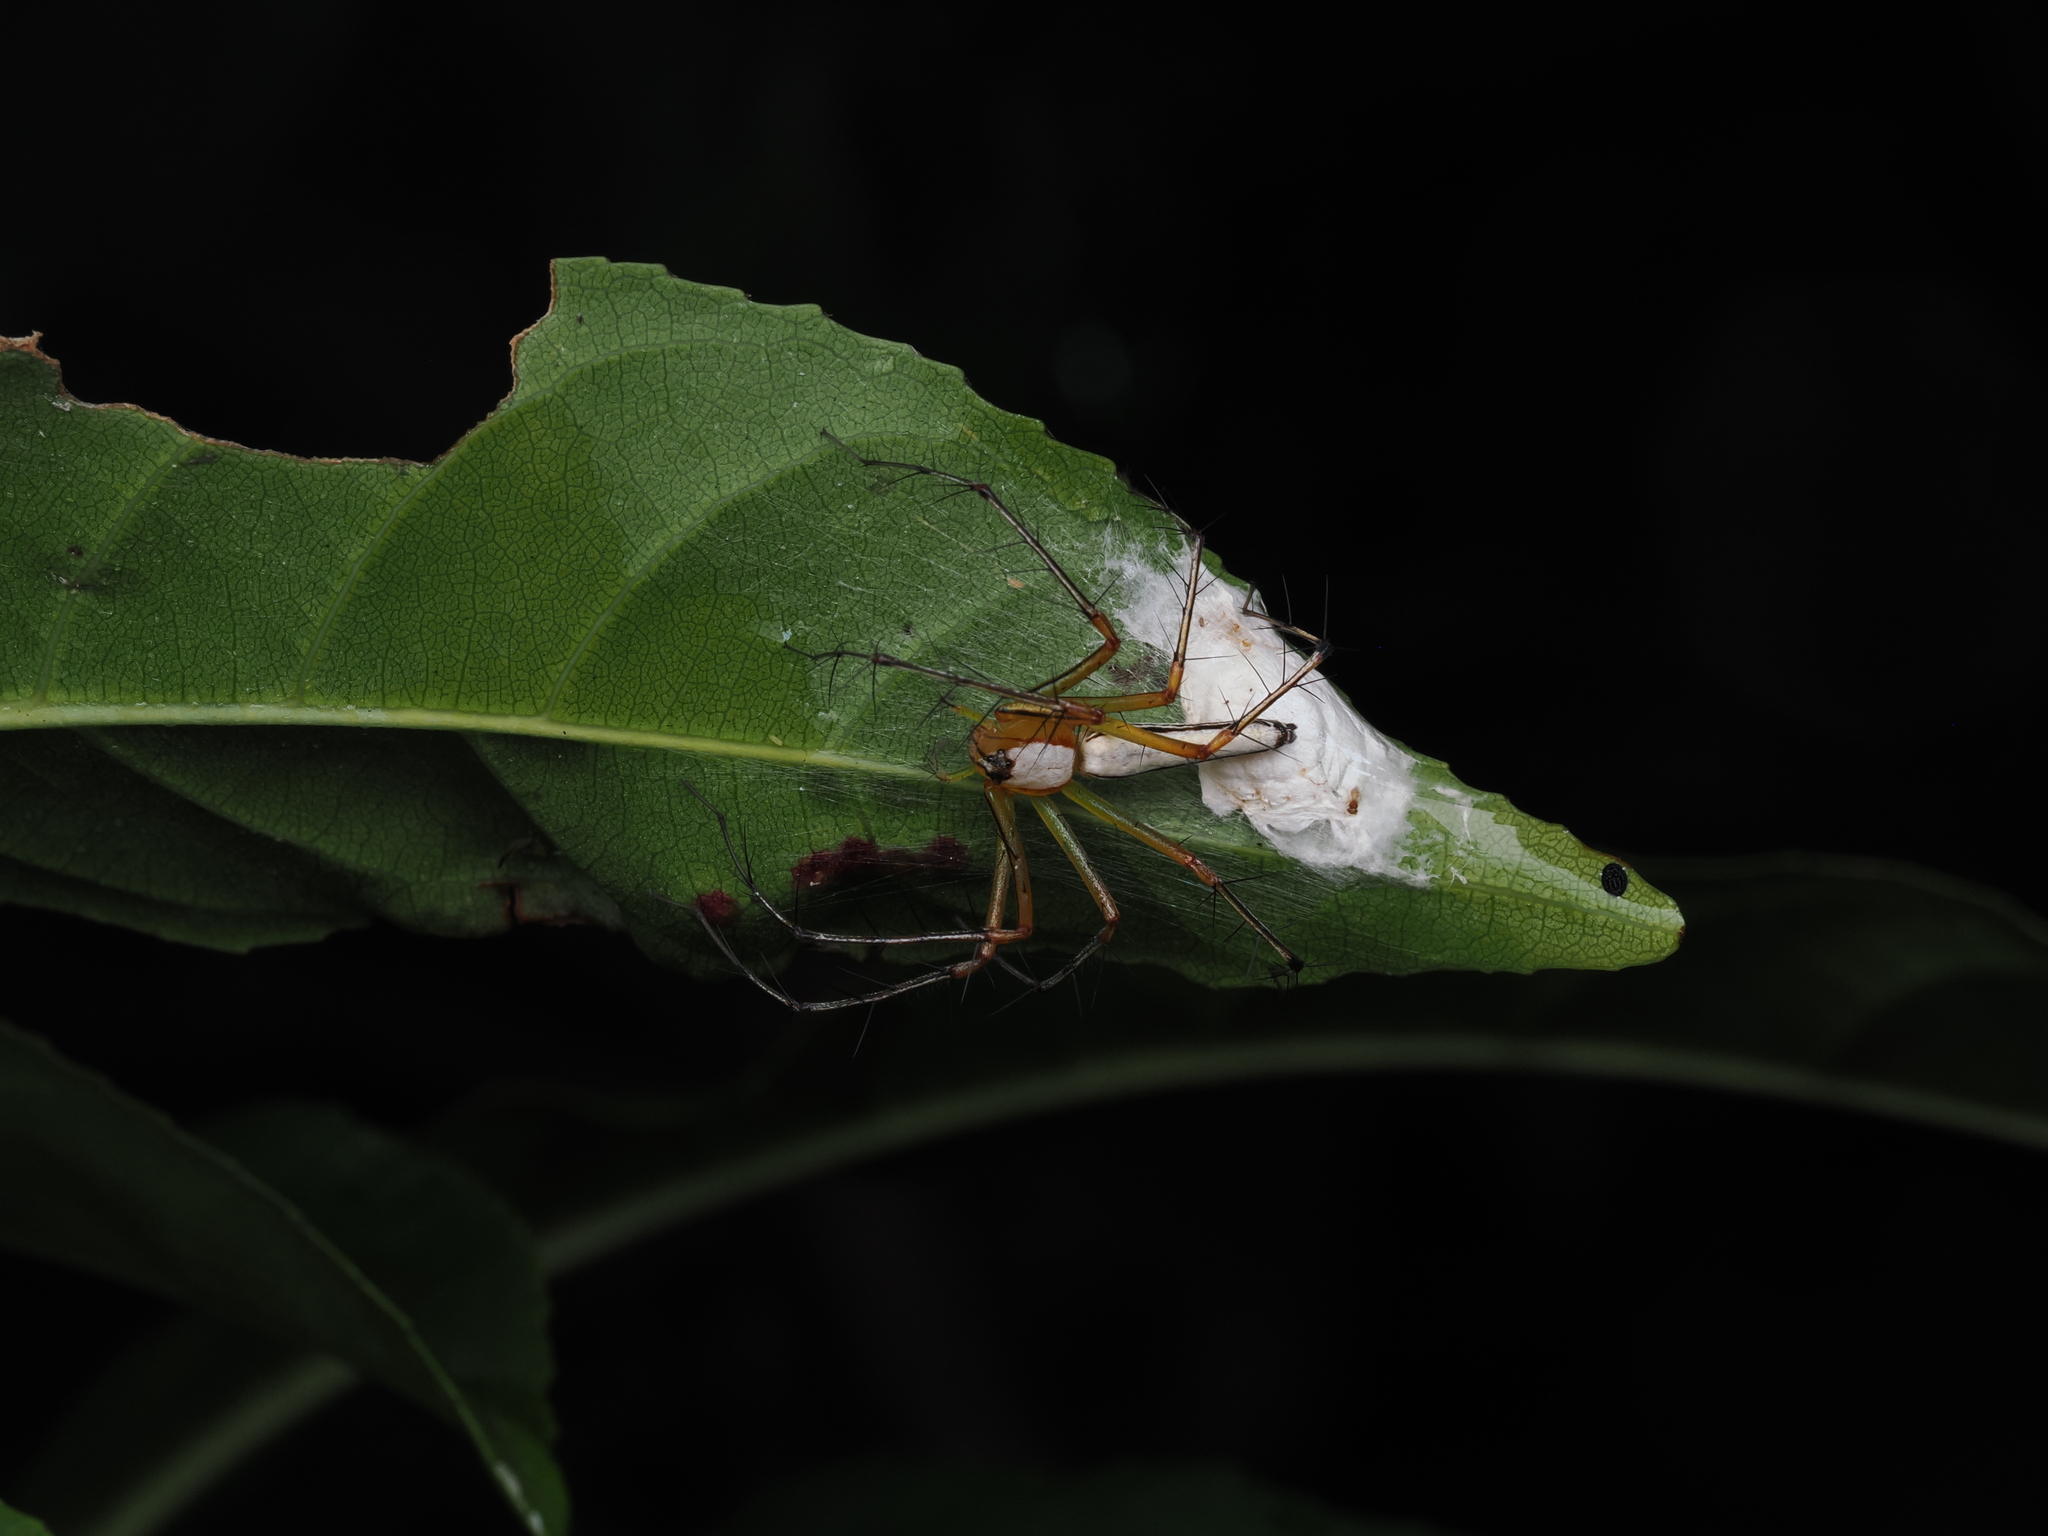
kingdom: Animalia
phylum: Arthropoda
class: Arachnida
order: Araneae
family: Oxyopidae
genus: Oxyopes
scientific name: Oxyopes shweta
